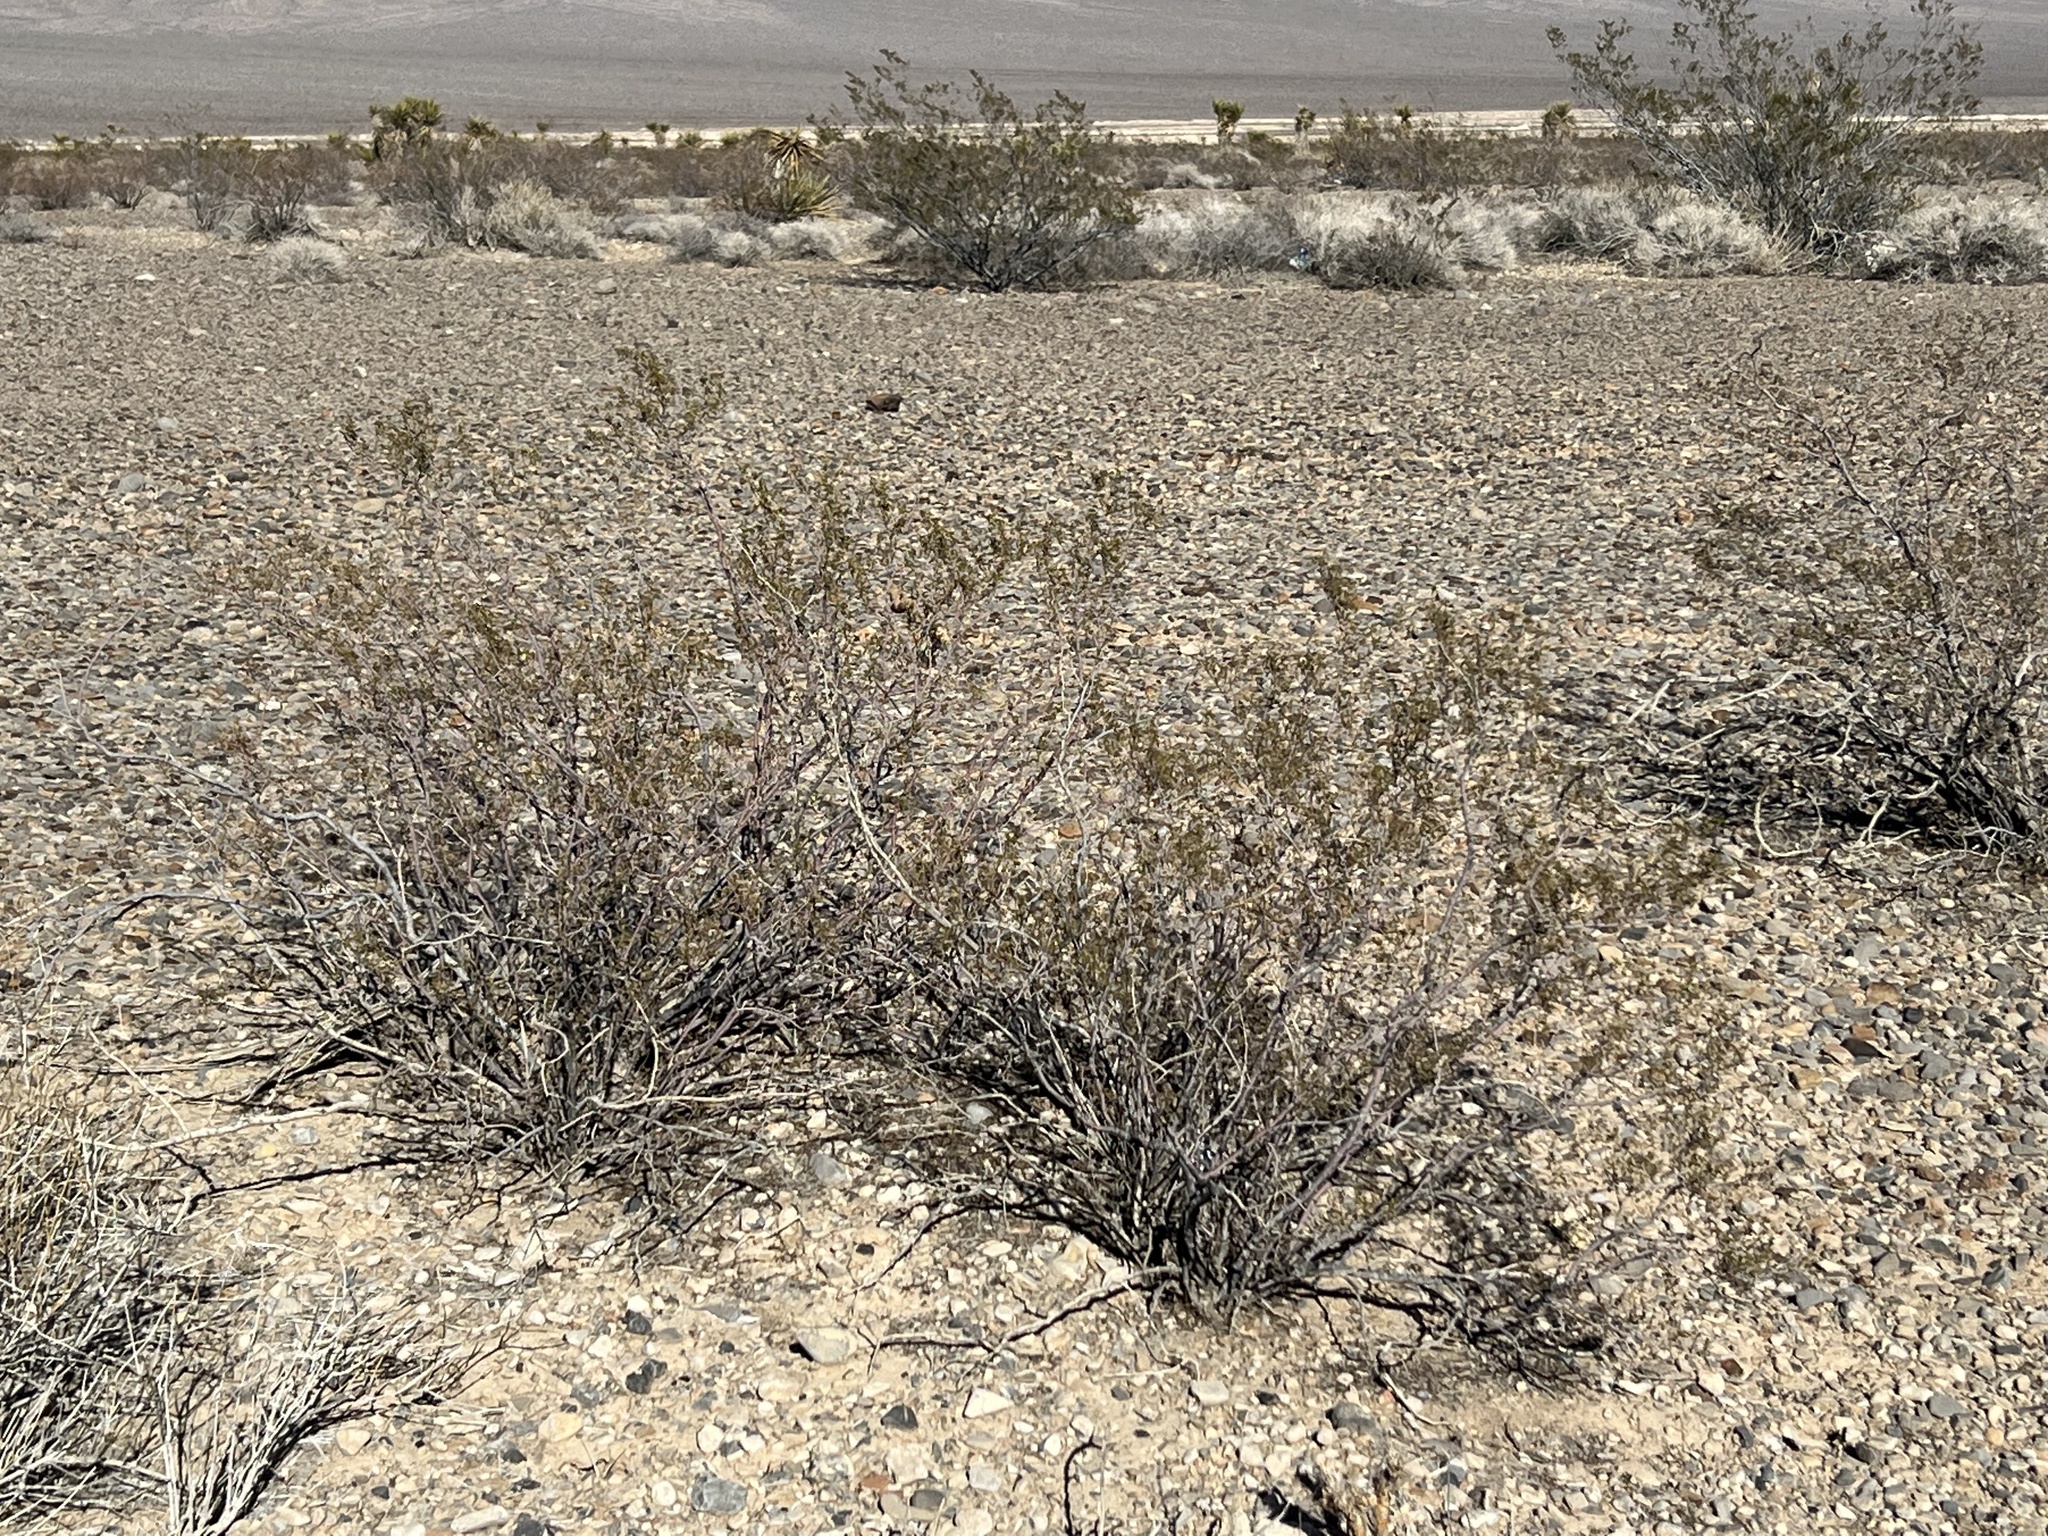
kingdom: Plantae
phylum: Tracheophyta
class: Magnoliopsida
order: Zygophyllales
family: Zygophyllaceae
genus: Larrea
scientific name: Larrea tridentata
